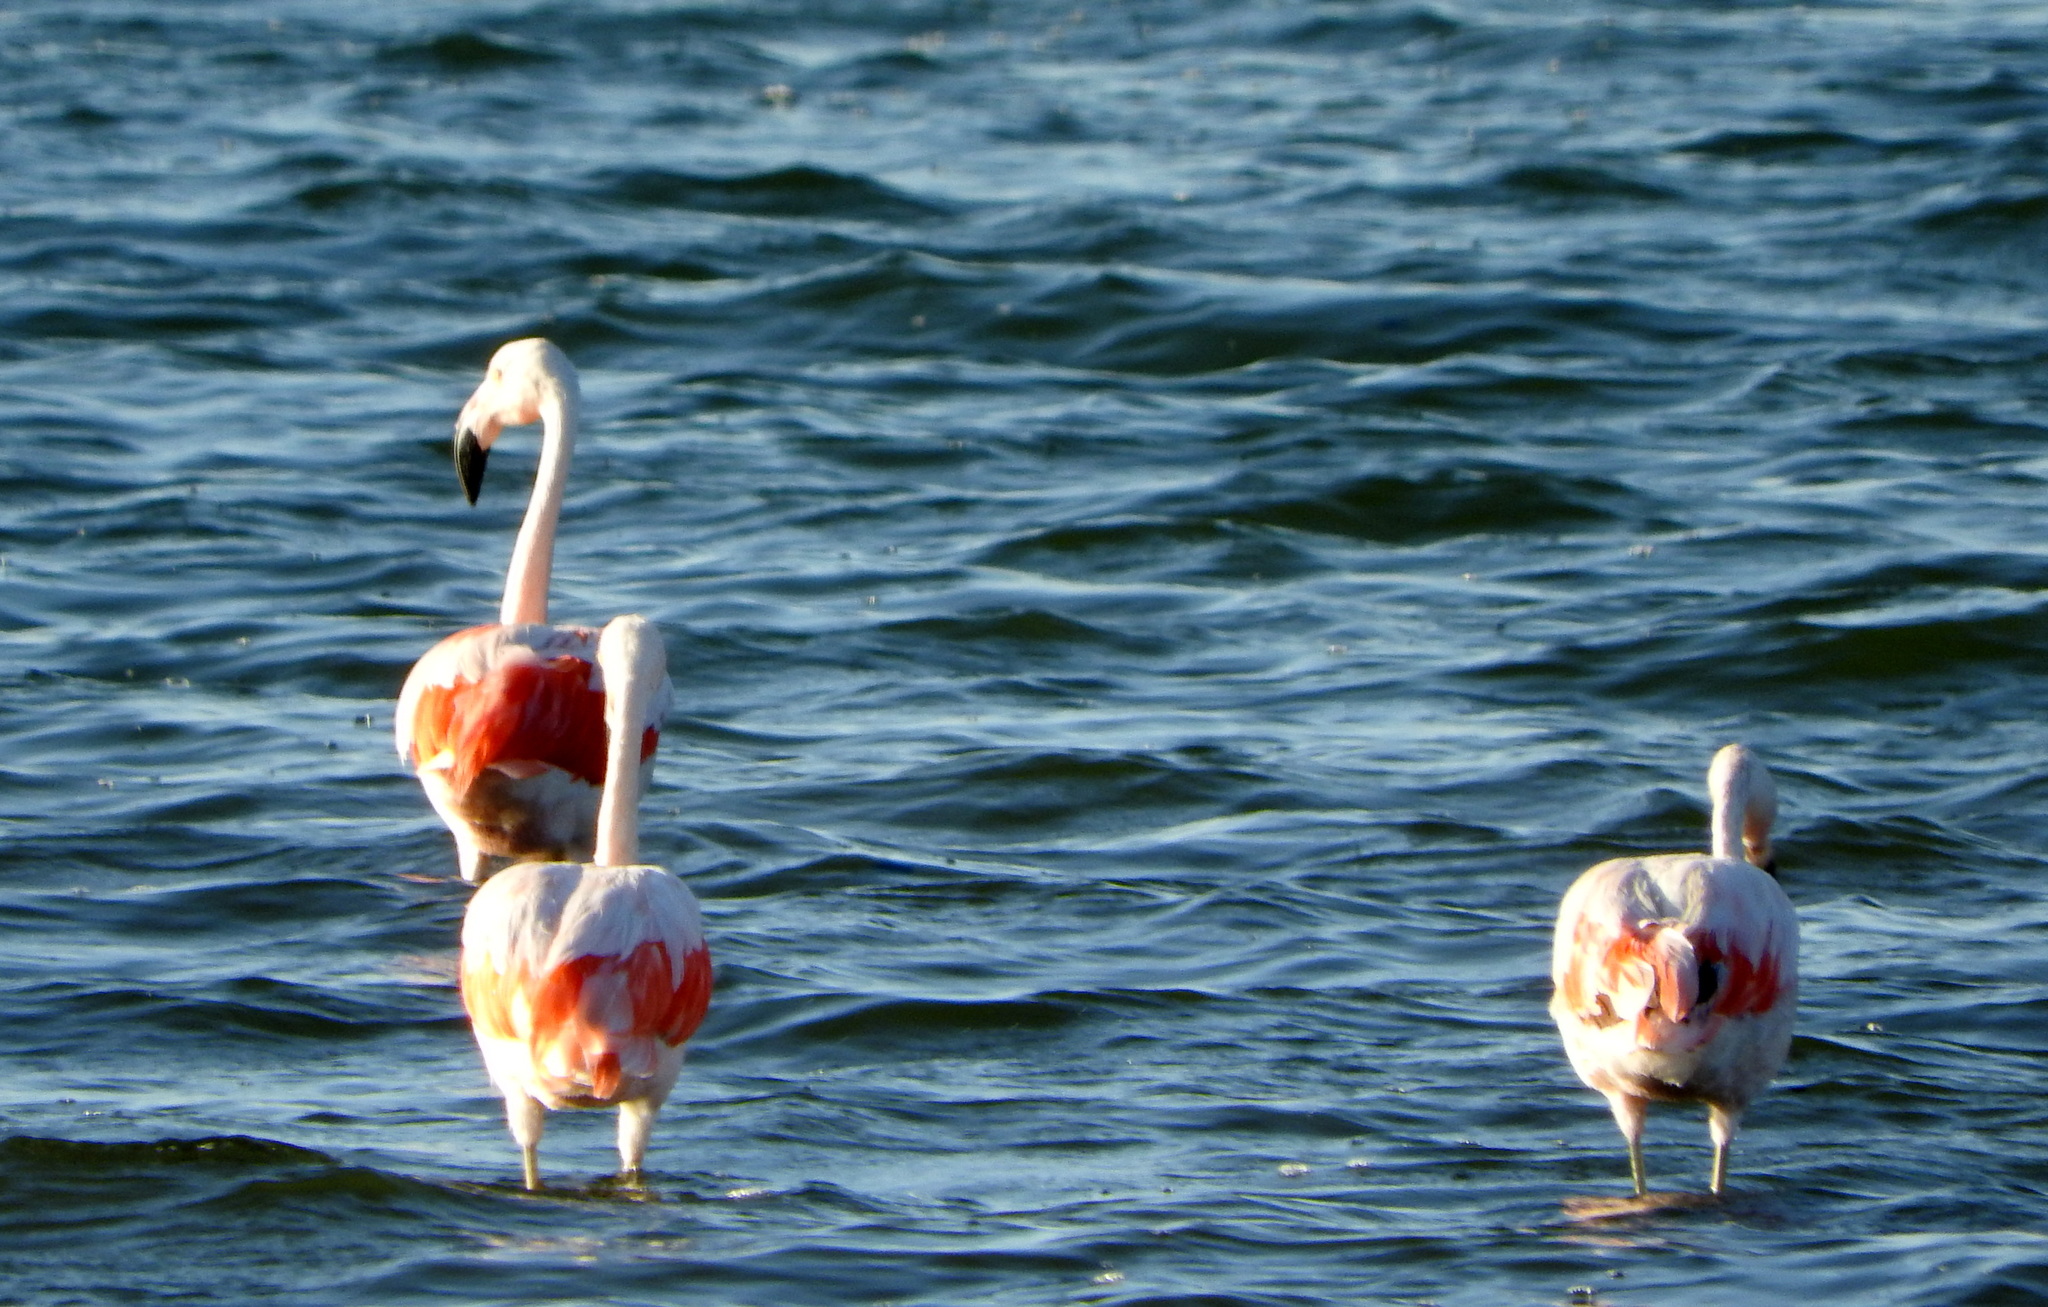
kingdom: Animalia
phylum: Chordata
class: Aves
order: Phoenicopteriformes
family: Phoenicopteridae
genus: Phoenicopterus
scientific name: Phoenicopterus chilensis
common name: Chilean flamingo
